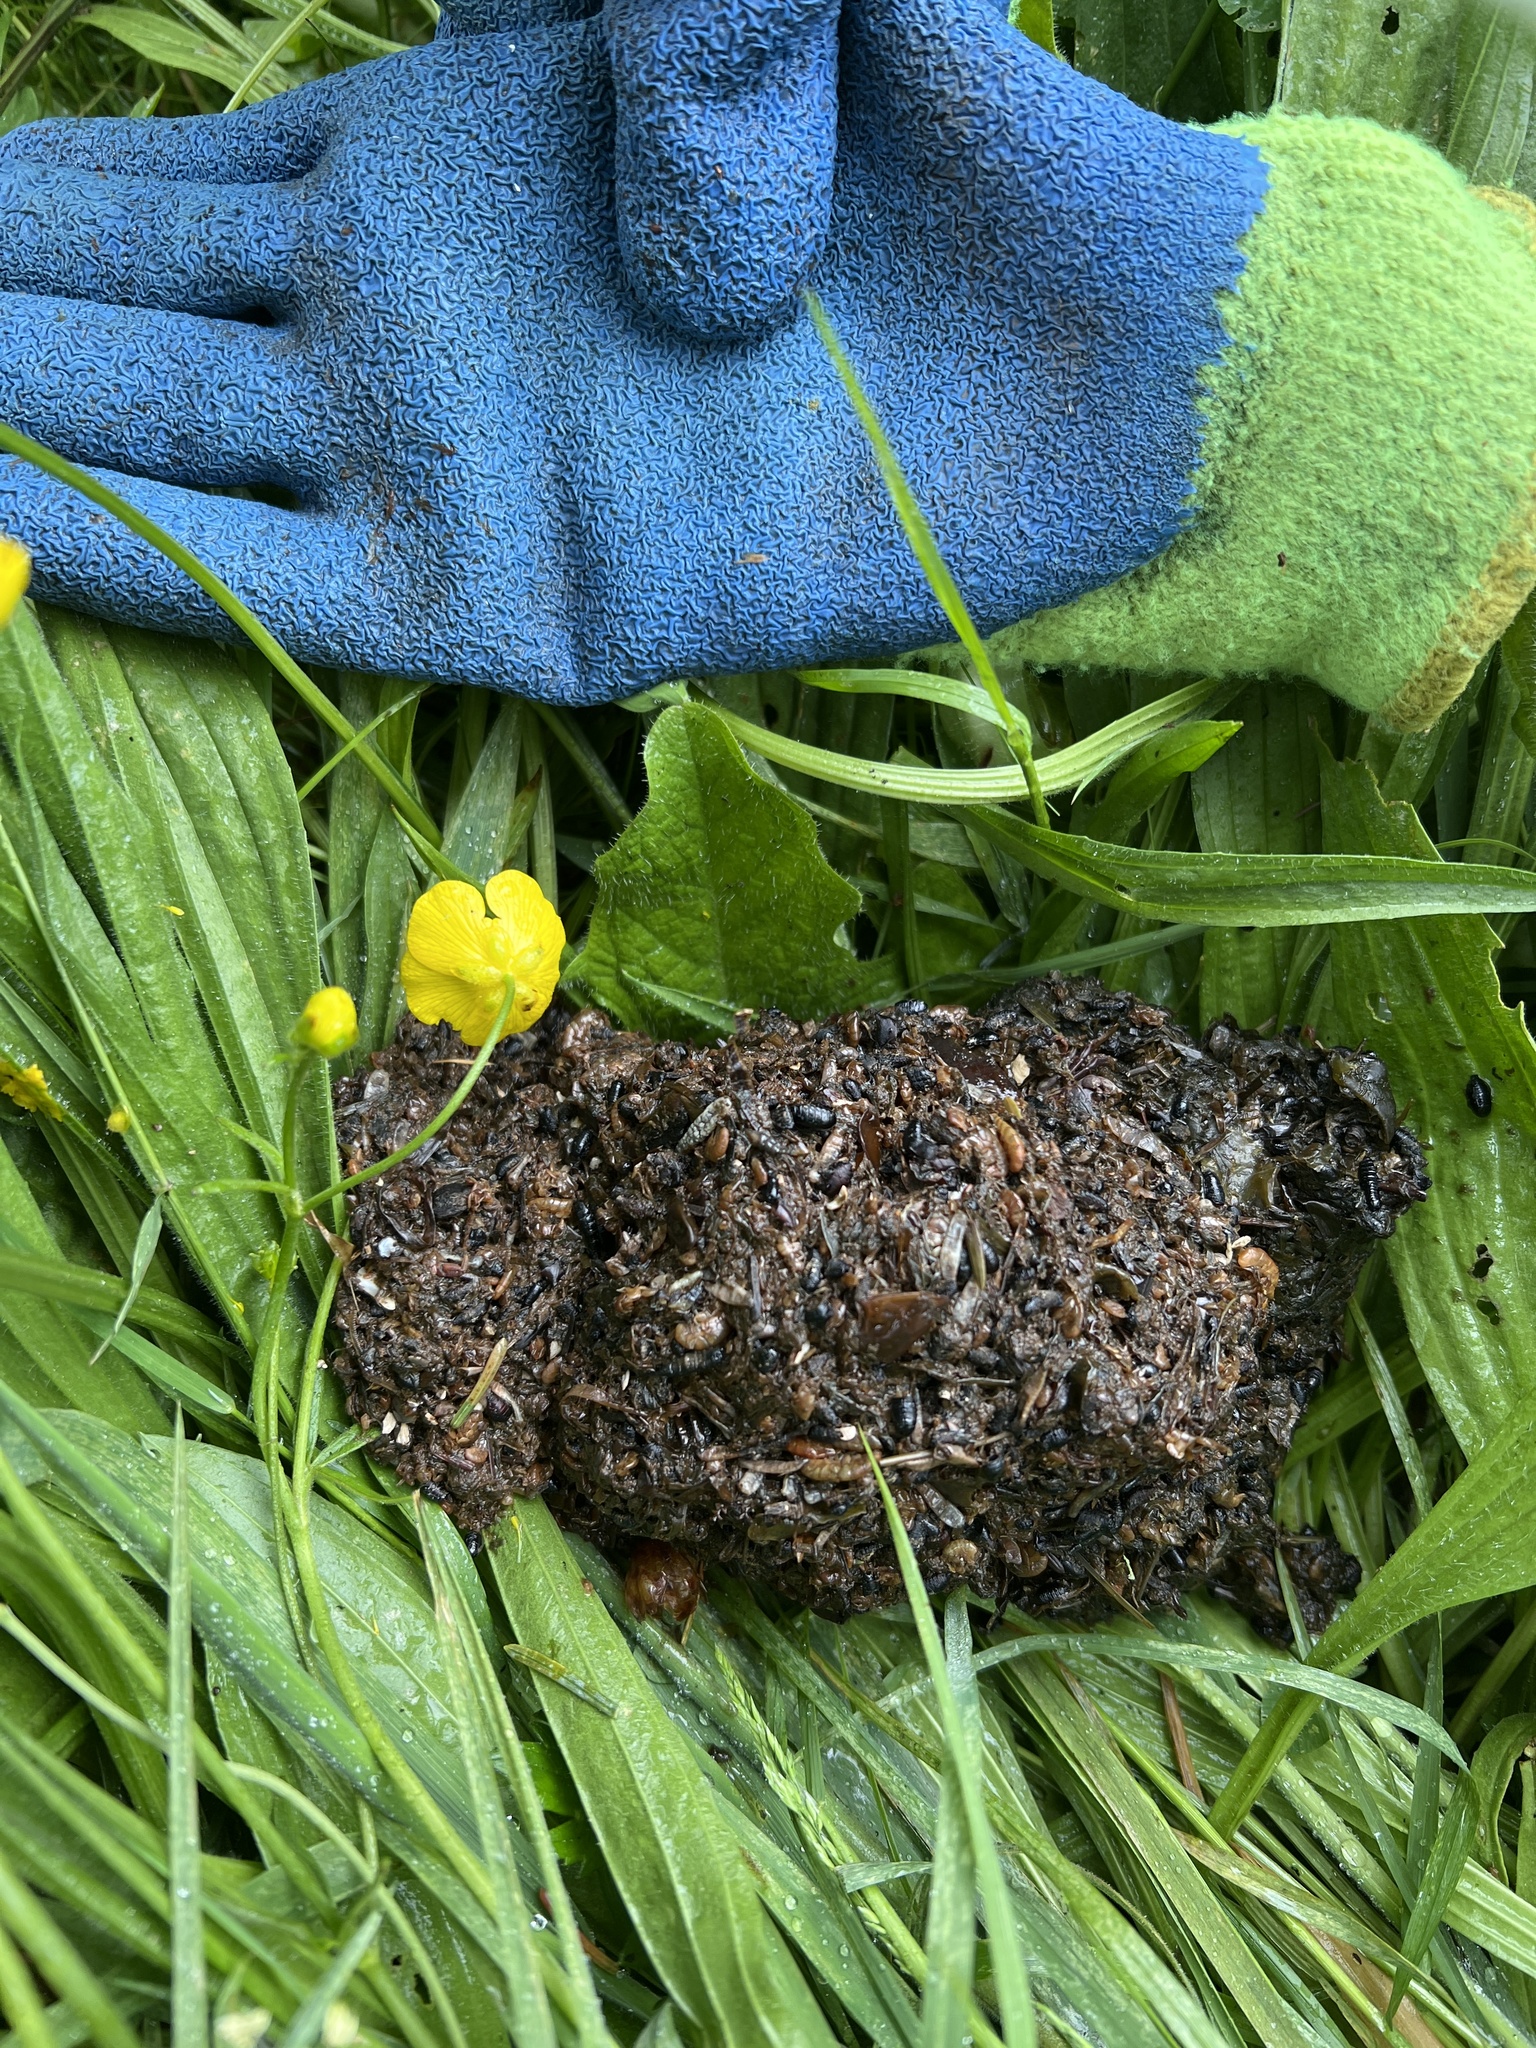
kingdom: Animalia
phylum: Chordata
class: Mammalia
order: Carnivora
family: Ursidae
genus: Ursus
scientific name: Ursus americanus
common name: American black bear
